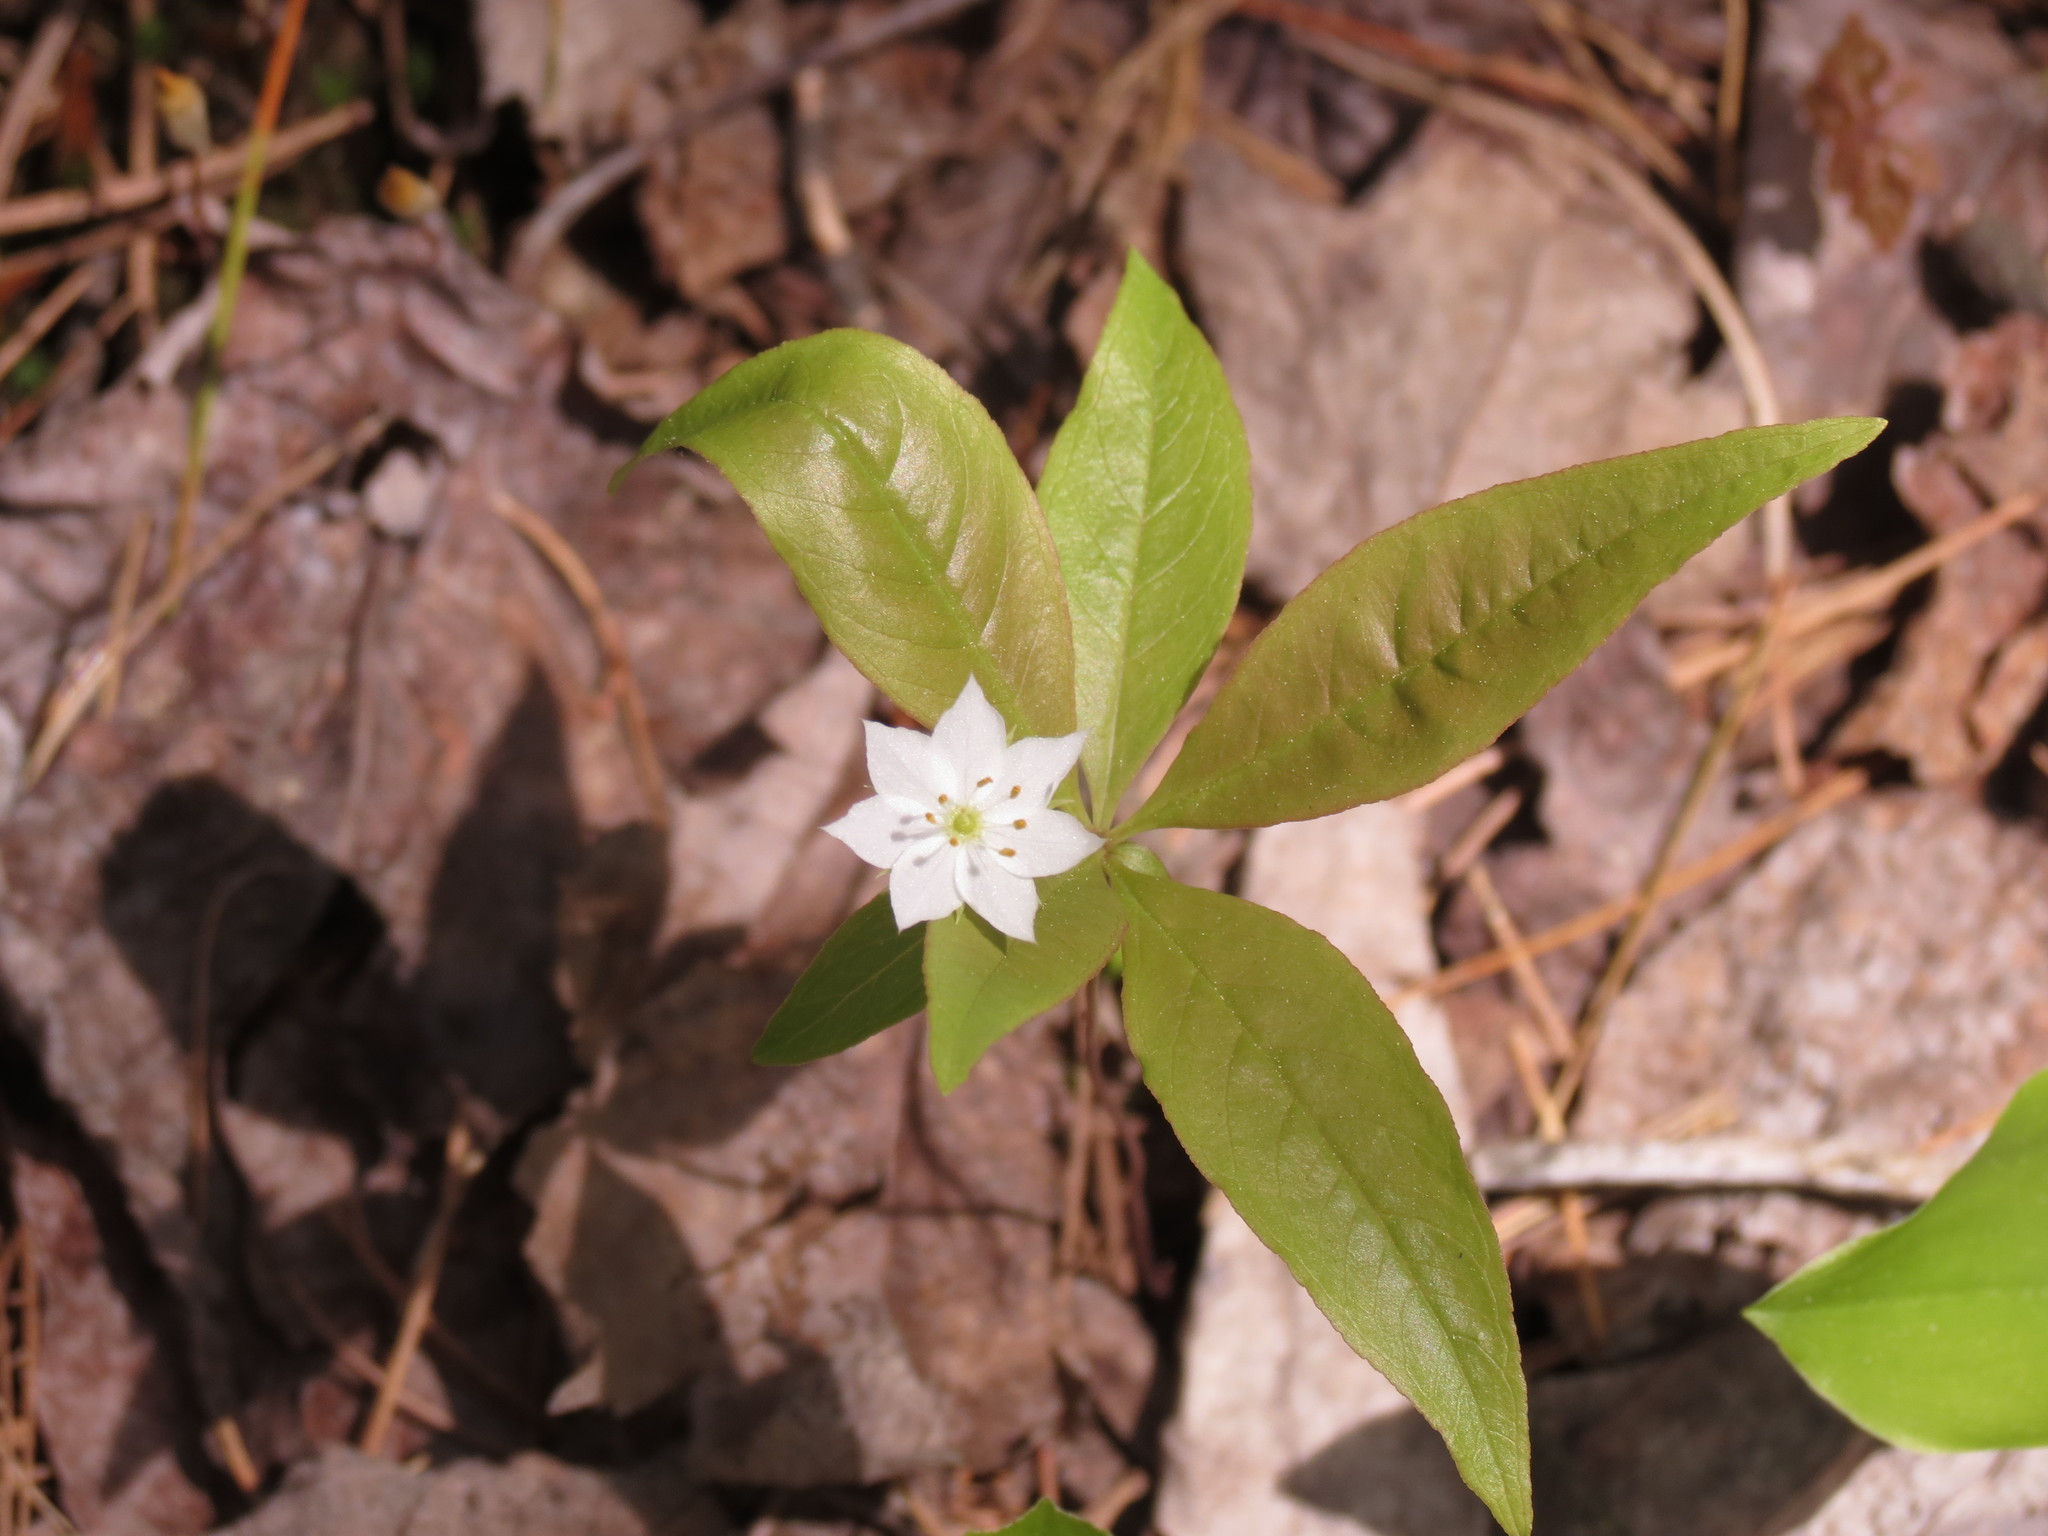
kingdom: Plantae
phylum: Tracheophyta
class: Magnoliopsida
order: Ericales
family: Primulaceae
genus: Lysimachia
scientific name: Lysimachia borealis
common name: American starflower
